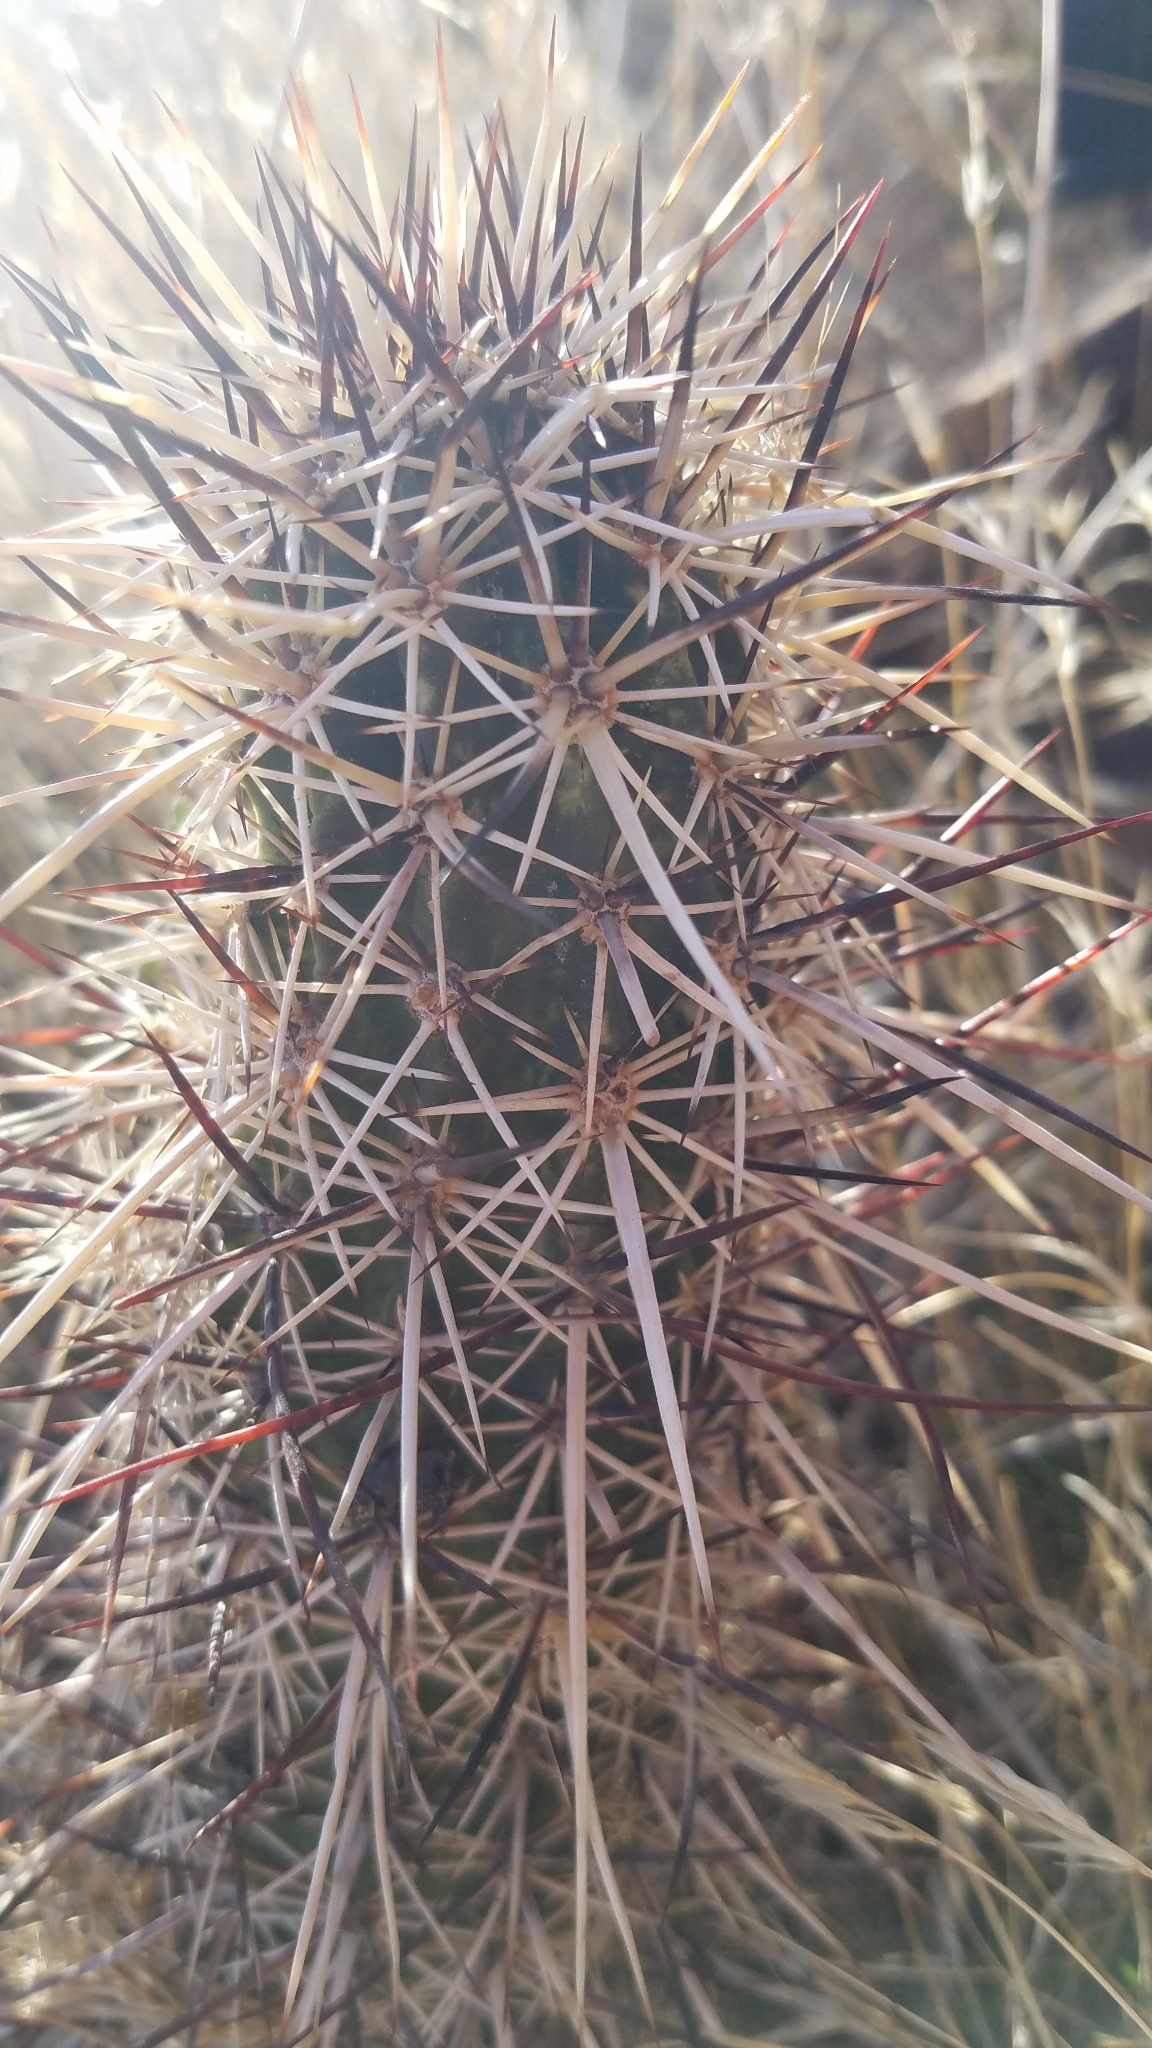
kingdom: Plantae
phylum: Tracheophyta
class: Magnoliopsida
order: Caryophyllales
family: Cactaceae
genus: Echinocereus
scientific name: Echinocereus engelmannii
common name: Engelmann's hedgehog cactus
